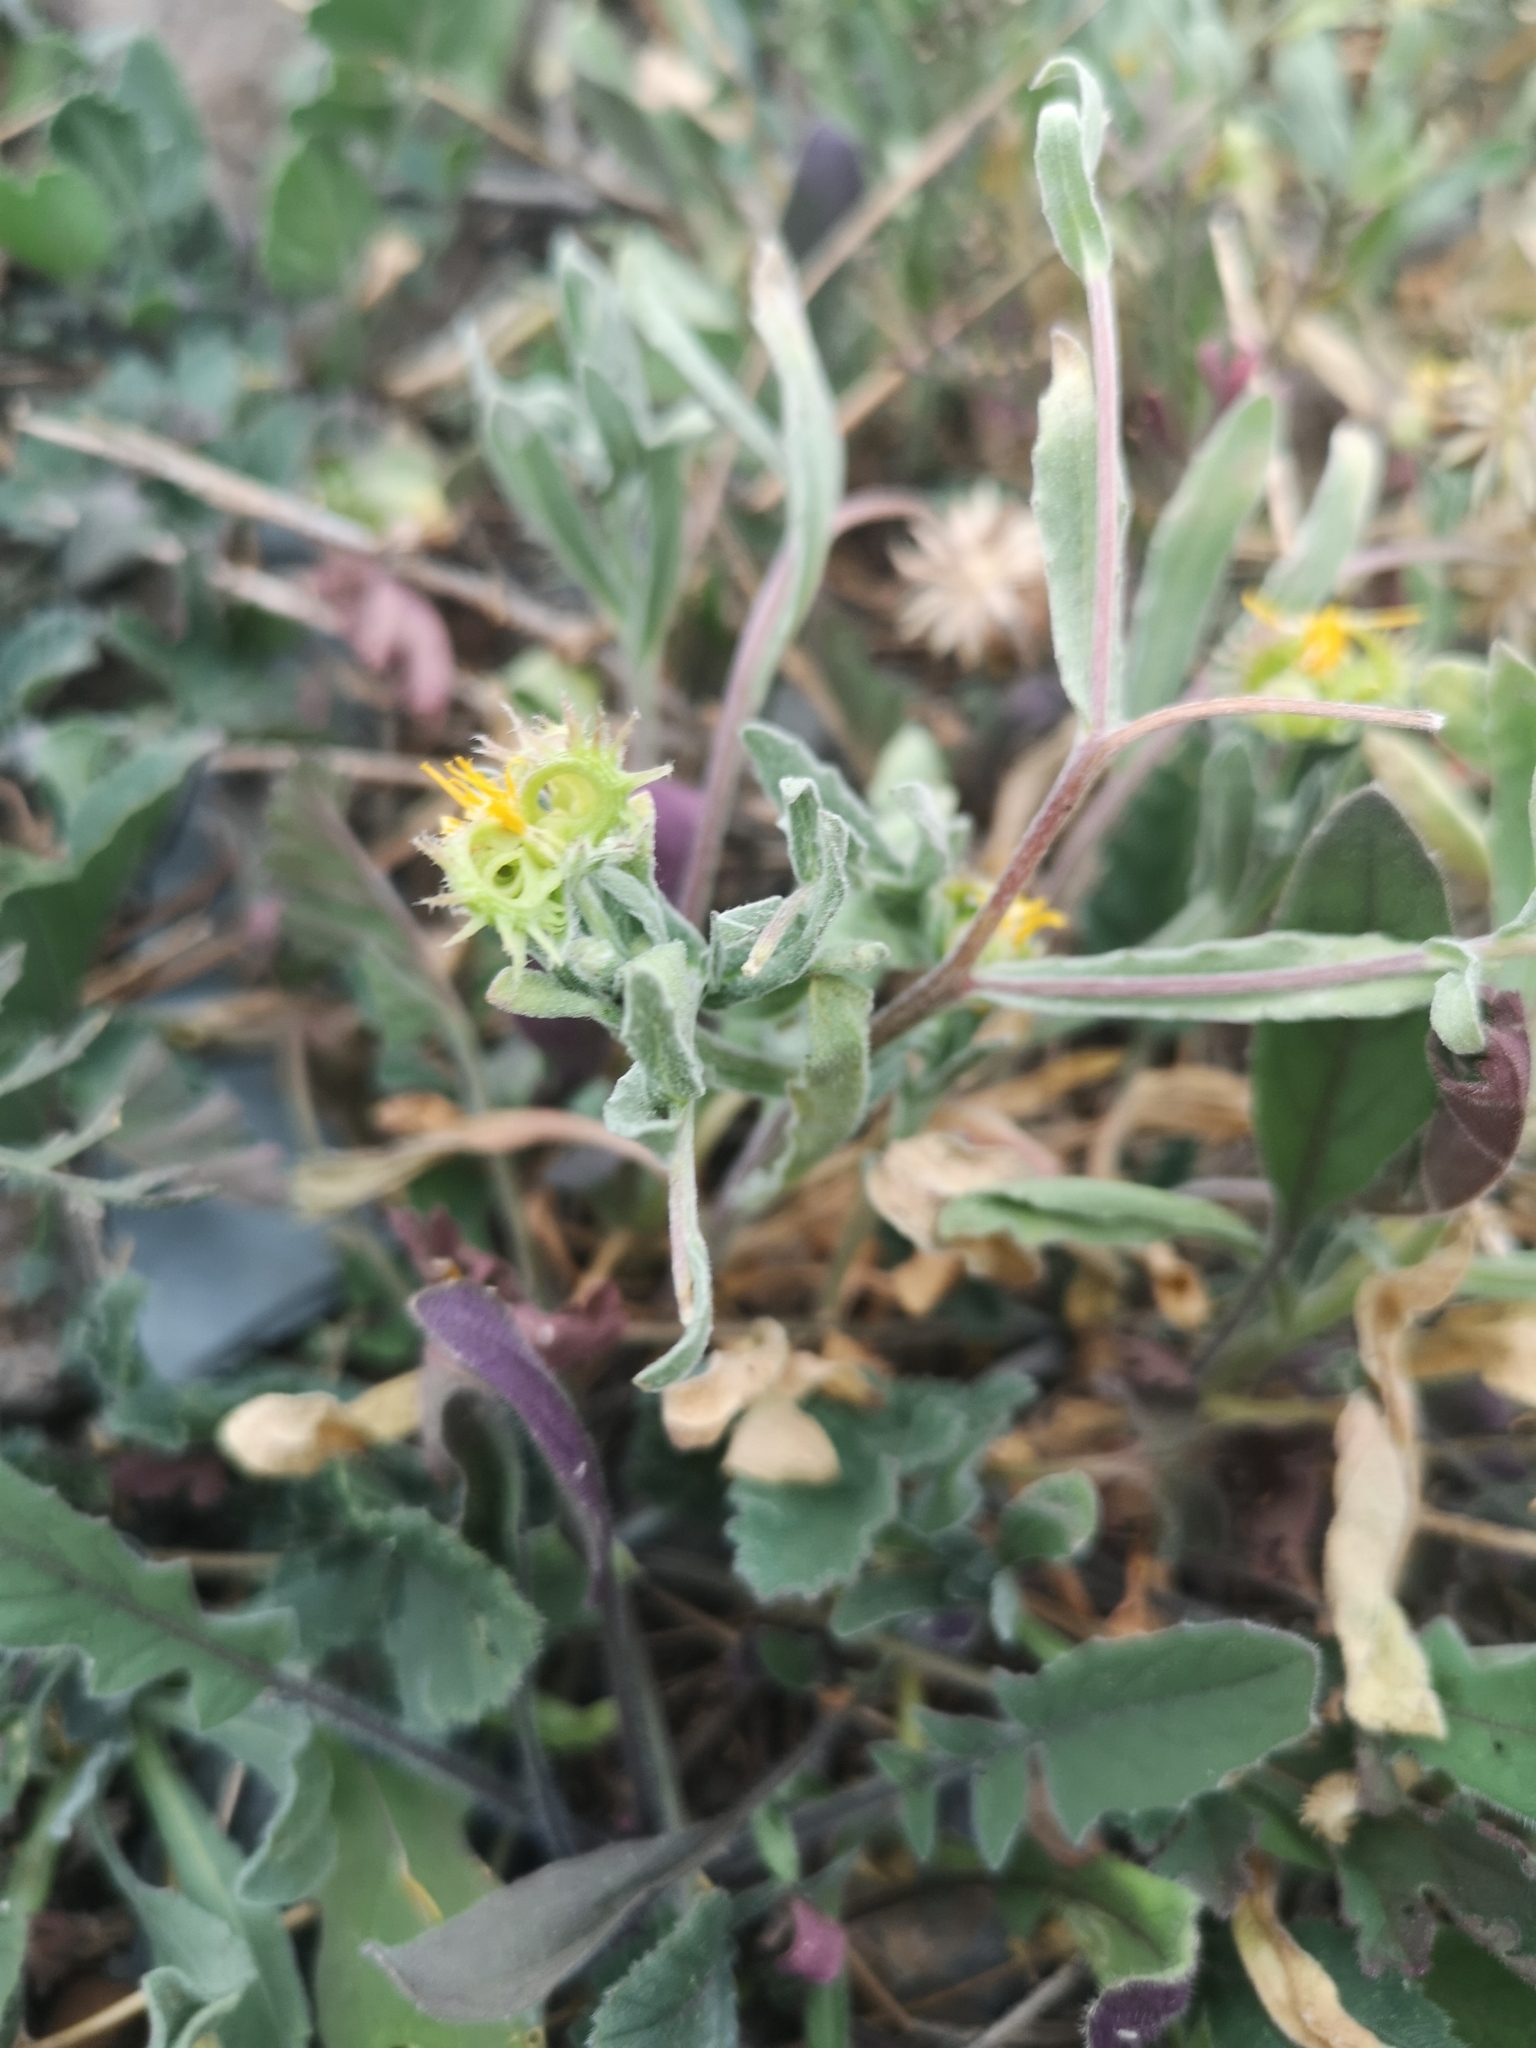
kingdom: Plantae
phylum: Tracheophyta
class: Magnoliopsida
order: Asterales
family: Asteraceae
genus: Calendula
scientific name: Calendula arvensis
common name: Field marigold
